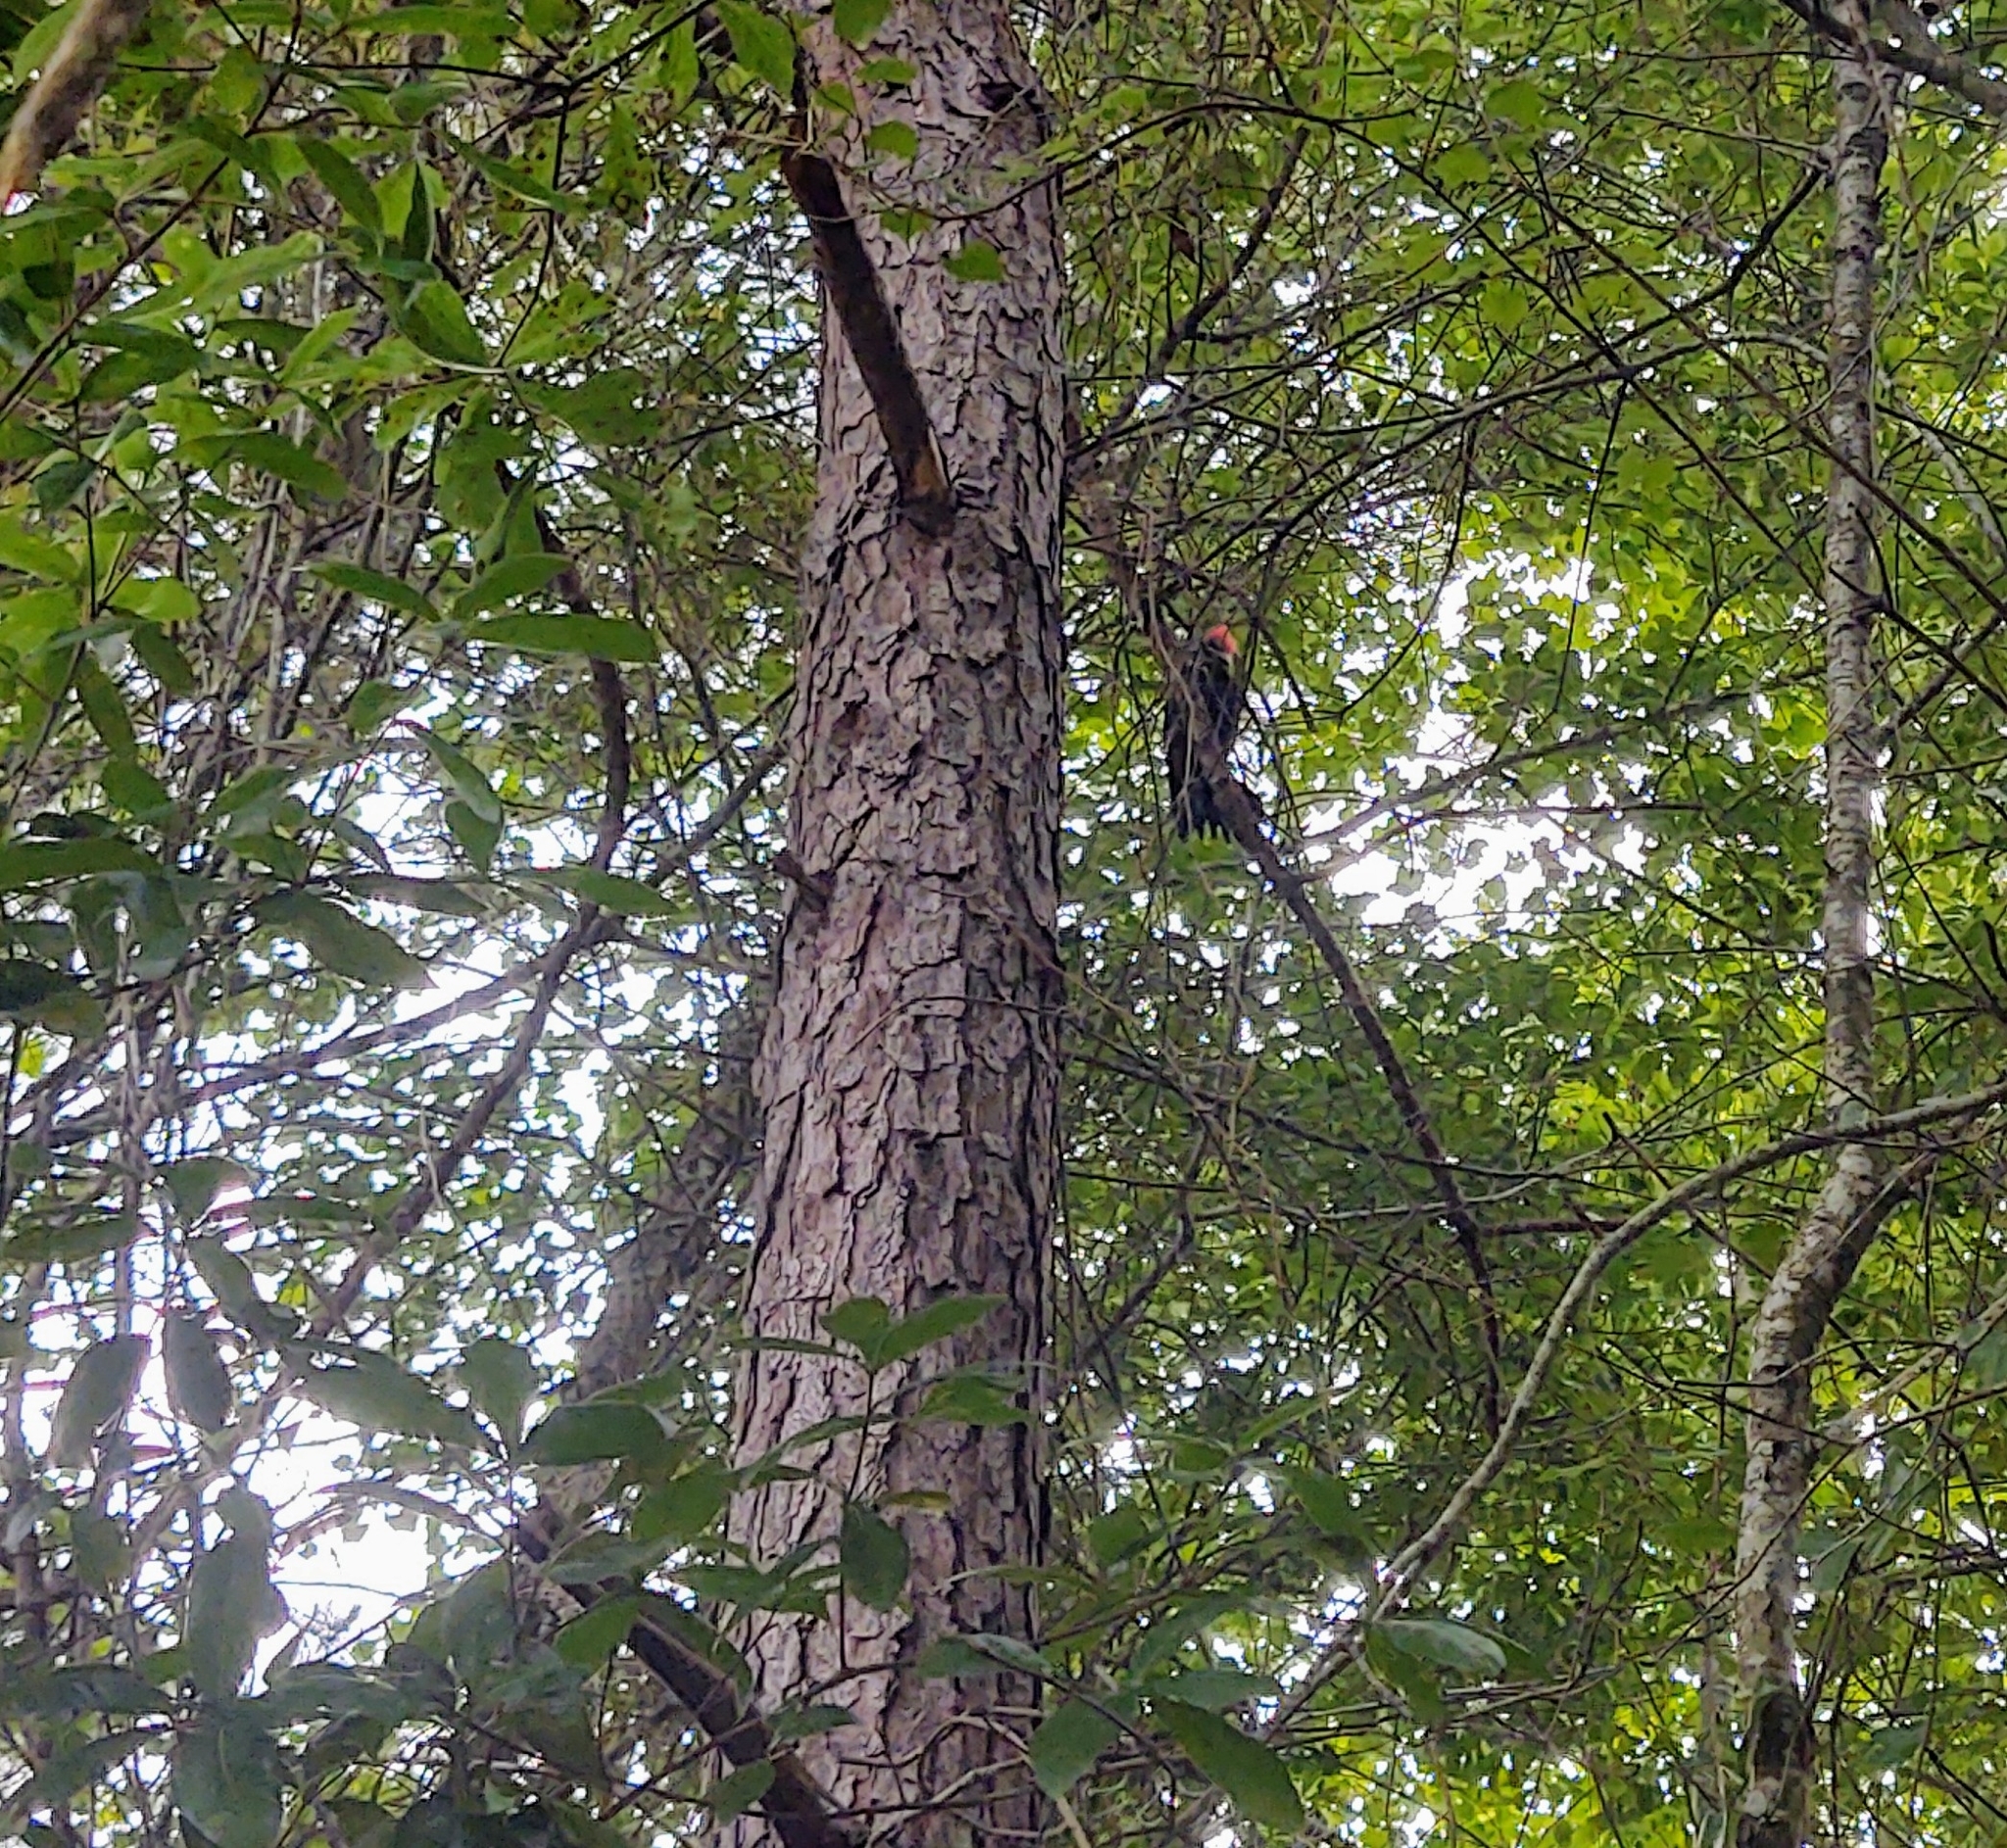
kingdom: Animalia
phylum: Chordata
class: Aves
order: Piciformes
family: Picidae
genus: Dryocopus
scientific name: Dryocopus pileatus
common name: Pileated woodpecker
